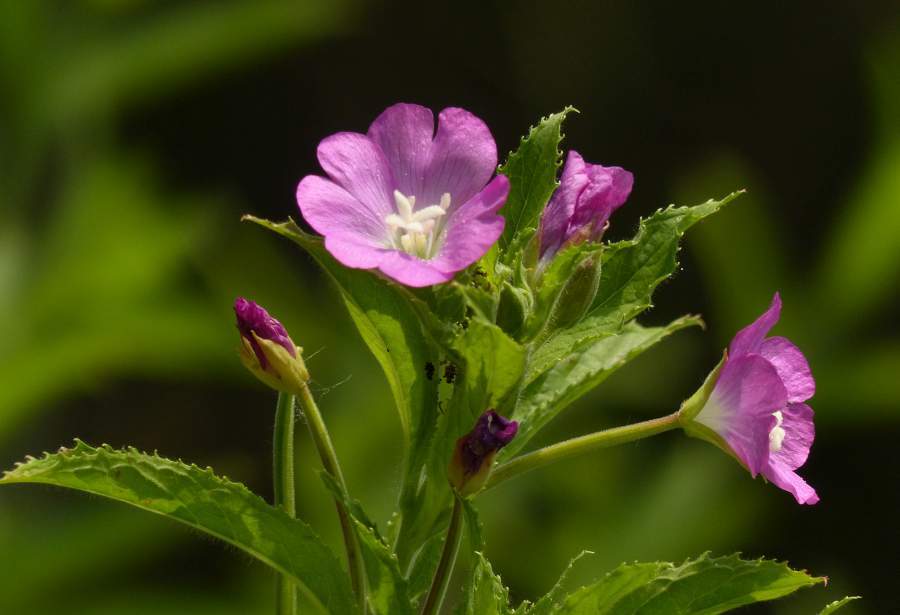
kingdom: Plantae
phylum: Tracheophyta
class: Magnoliopsida
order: Myrtales
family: Onagraceae
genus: Epilobium
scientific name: Epilobium hirsutum
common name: Great willowherb
